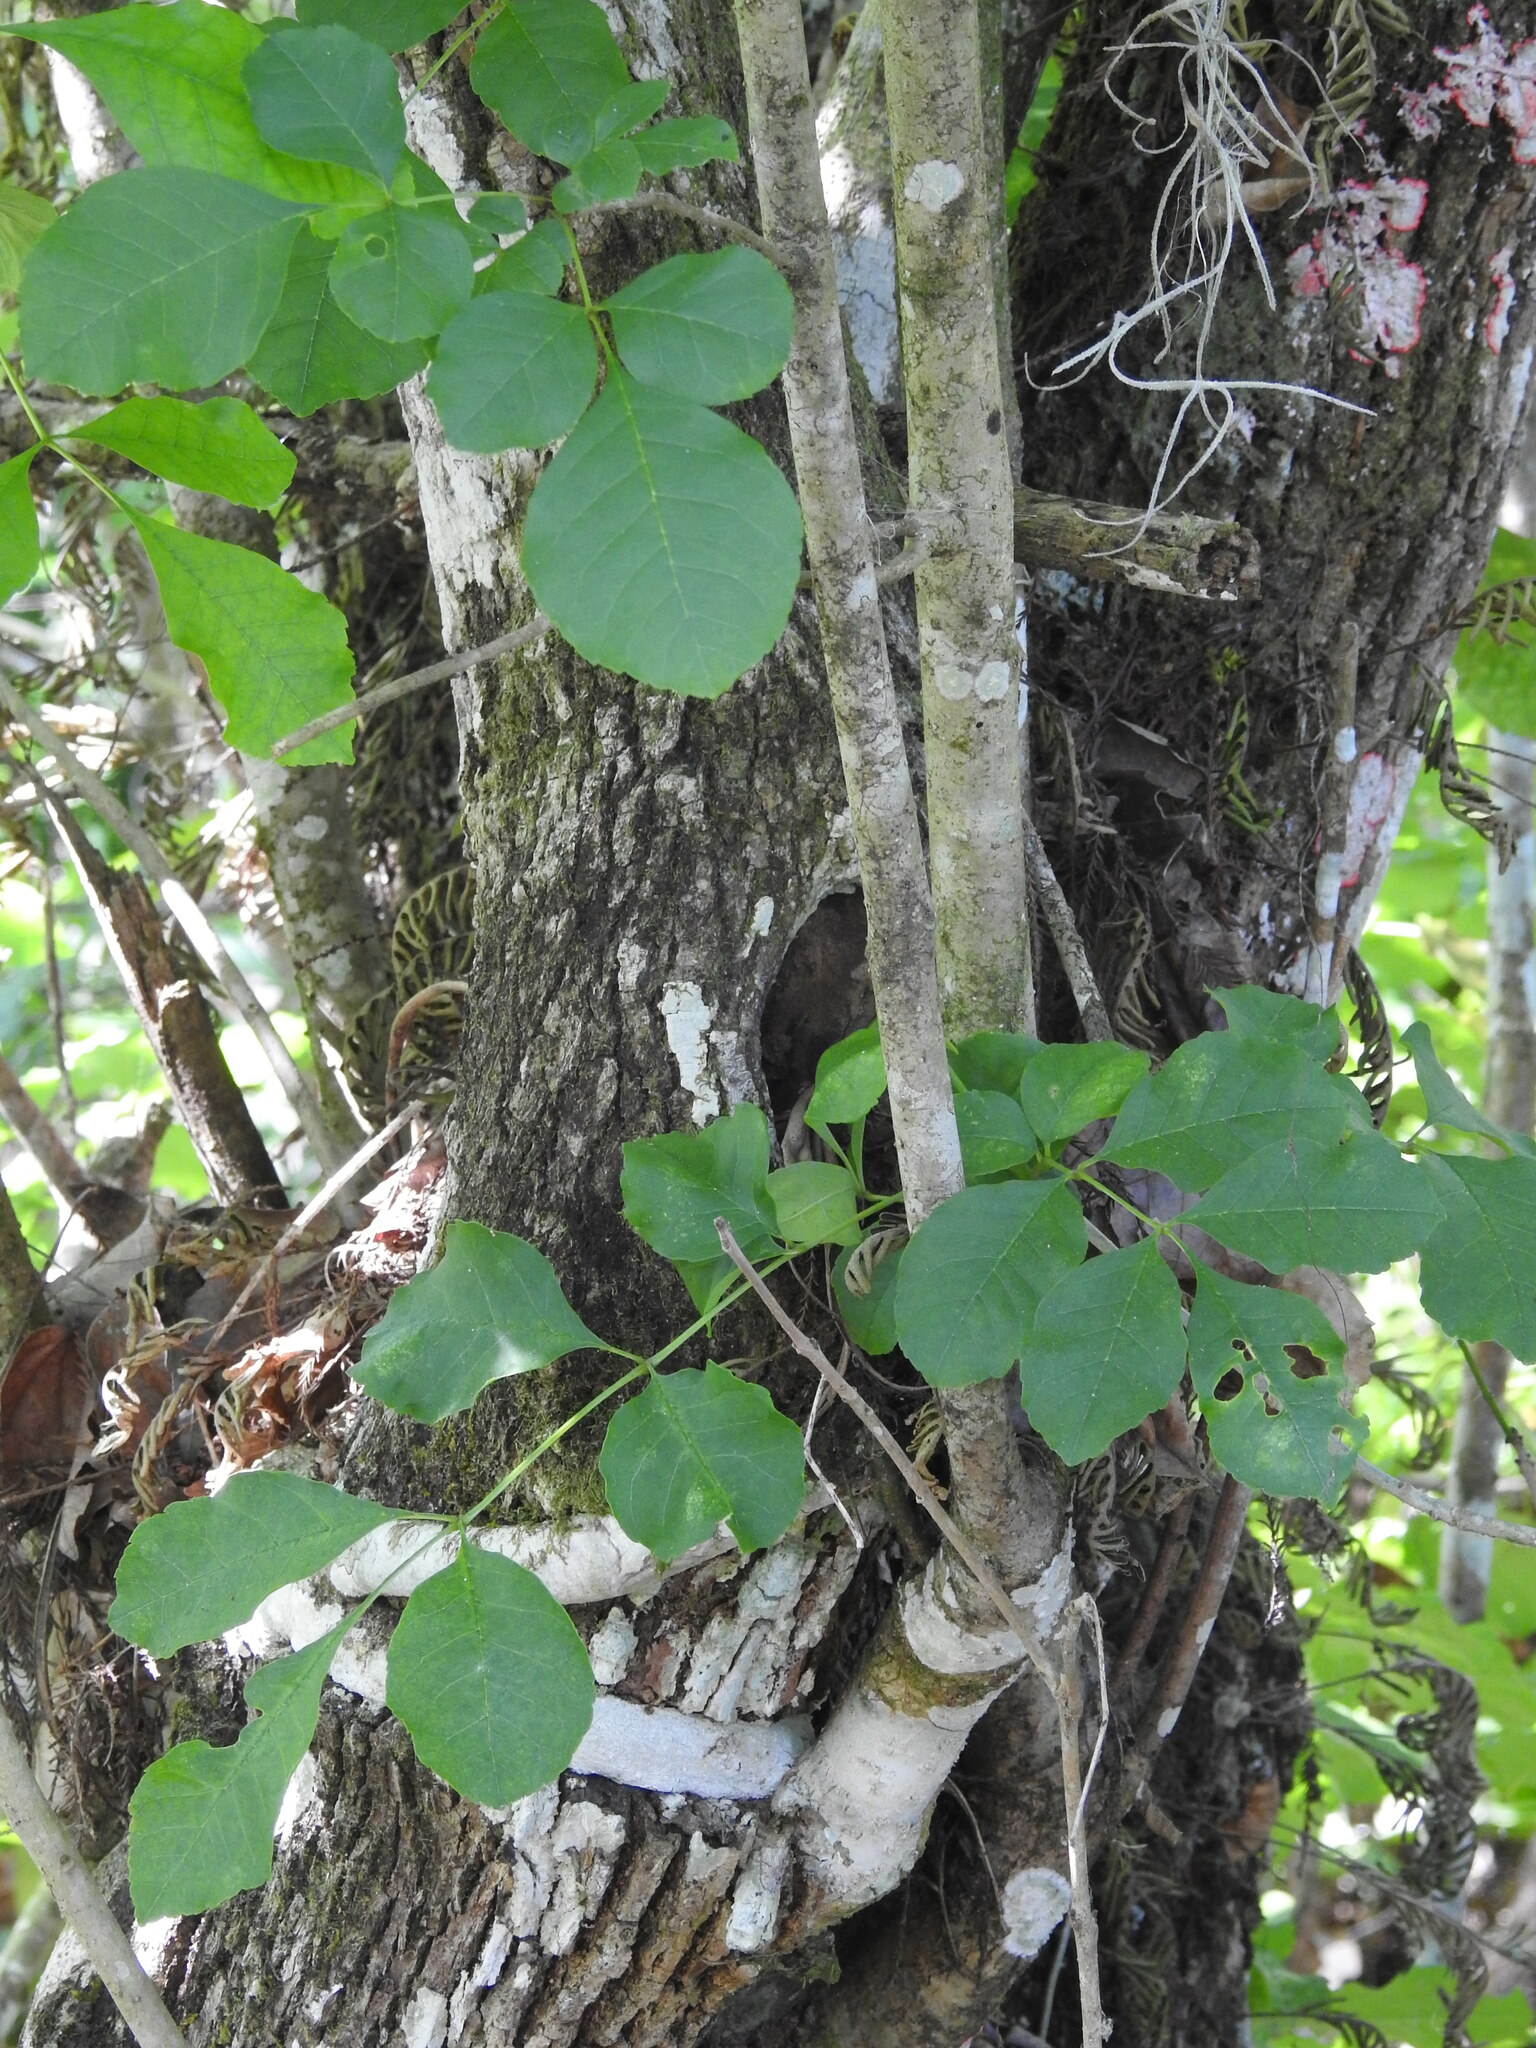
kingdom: Plantae
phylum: Tracheophyta
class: Magnoliopsida
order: Lamiales
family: Oleaceae
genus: Fraxinus
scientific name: Fraxinus caroliniana
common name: Carolina ash
